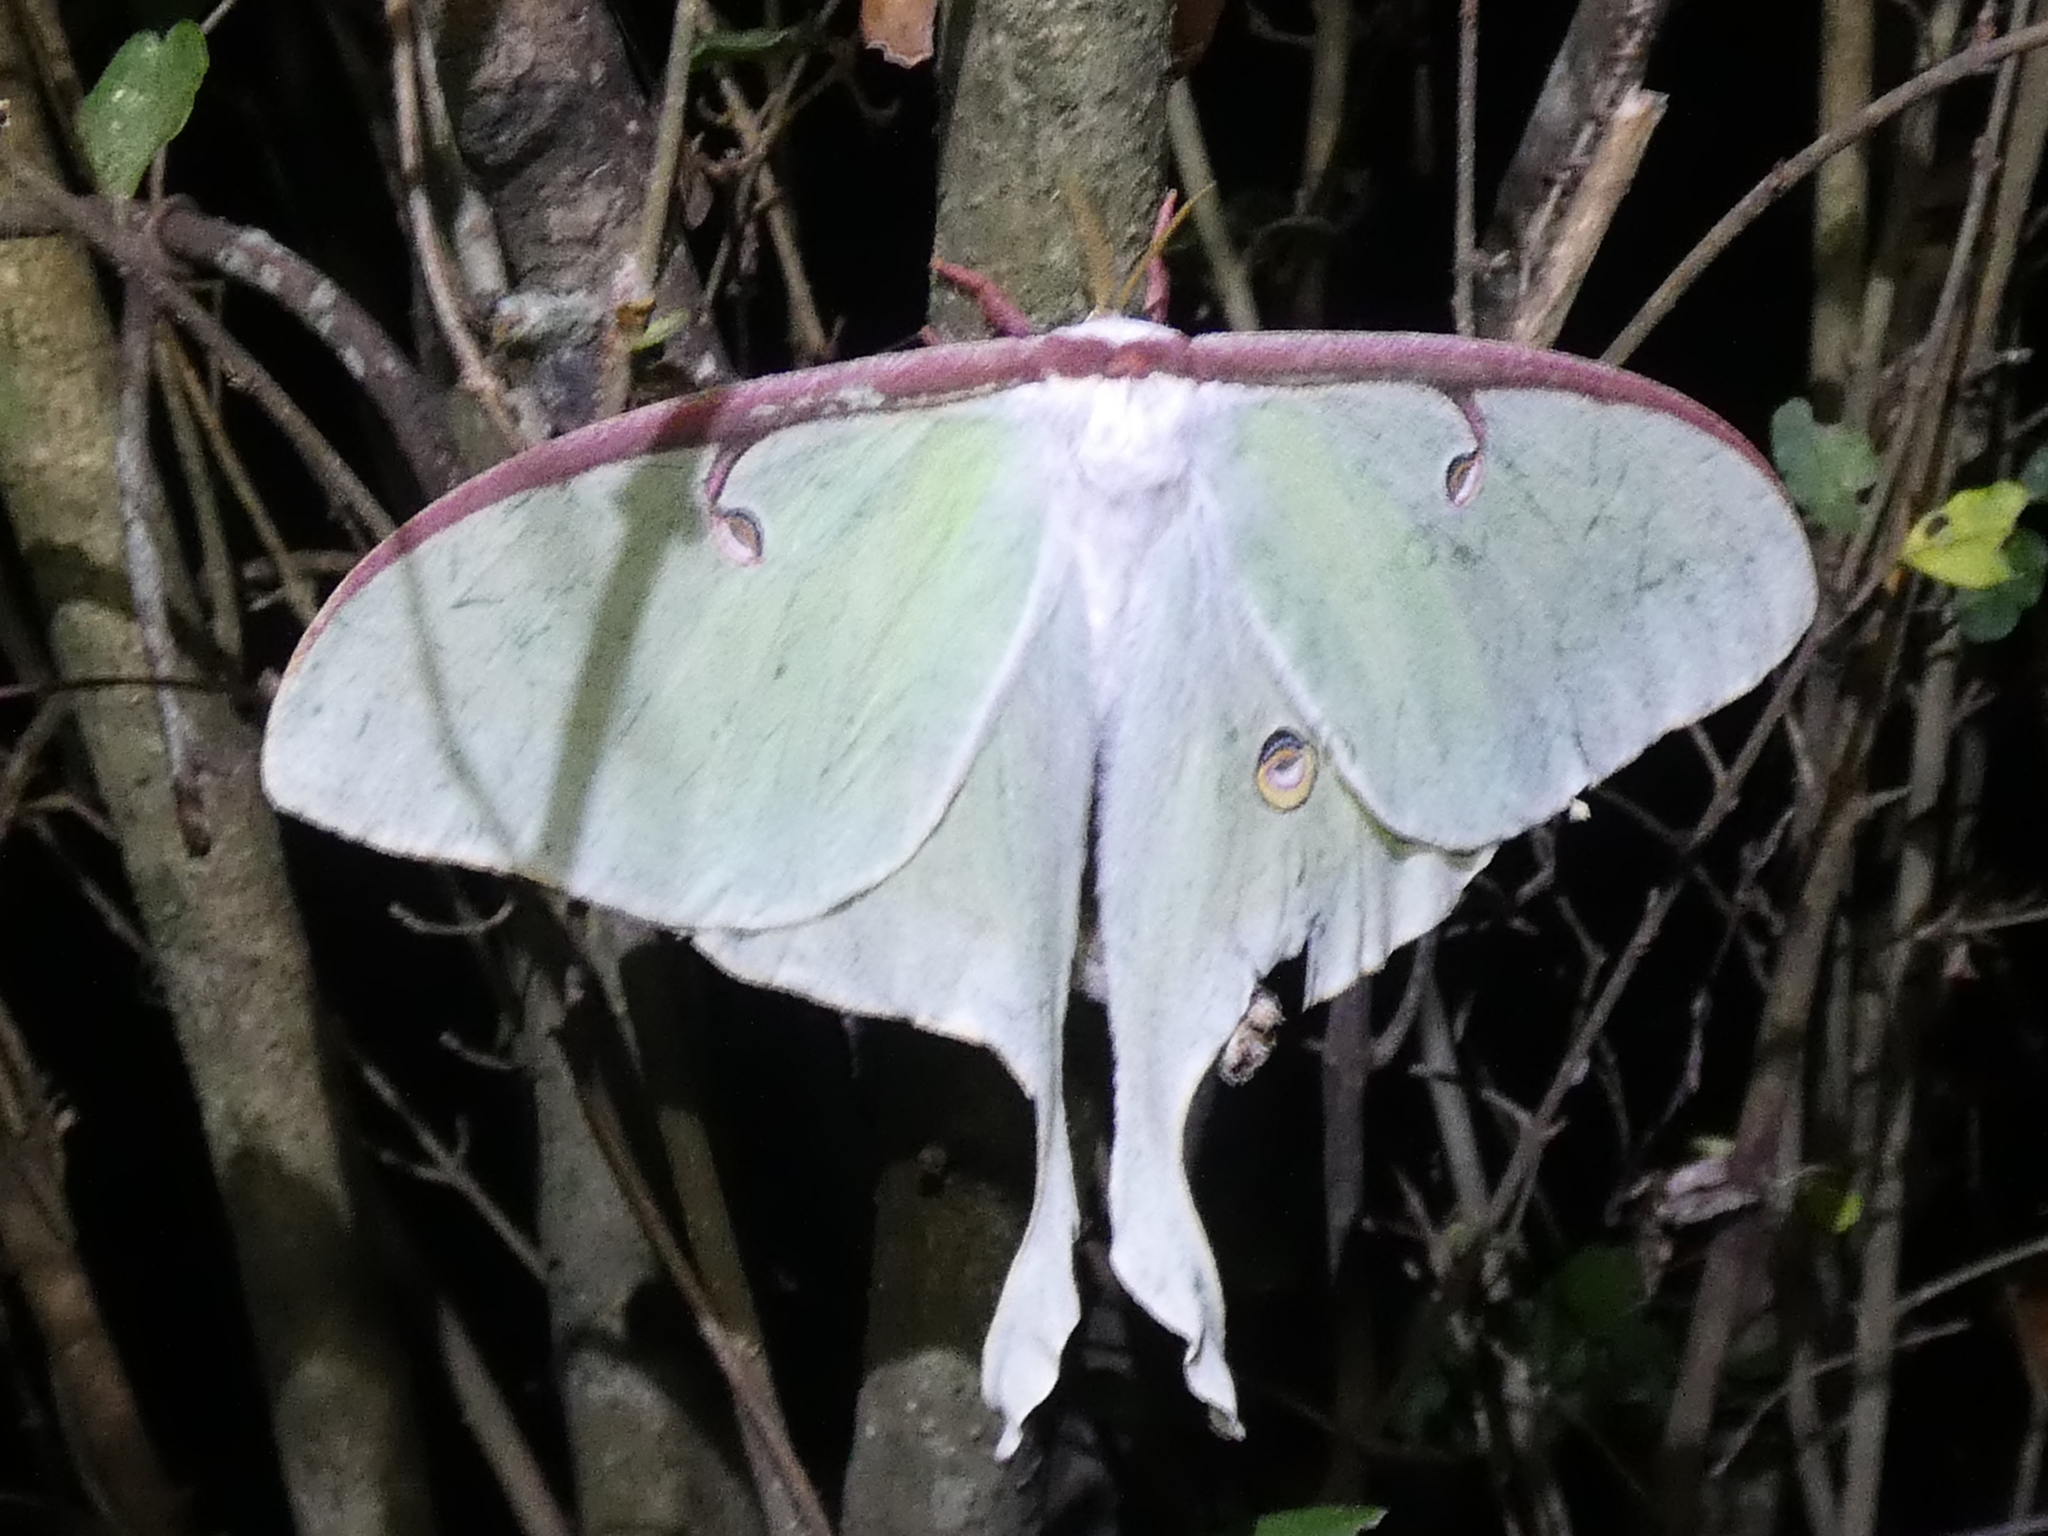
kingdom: Animalia
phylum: Arthropoda
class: Insecta
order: Lepidoptera
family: Saturniidae
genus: Actias
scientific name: Actias luna
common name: Luna moth
